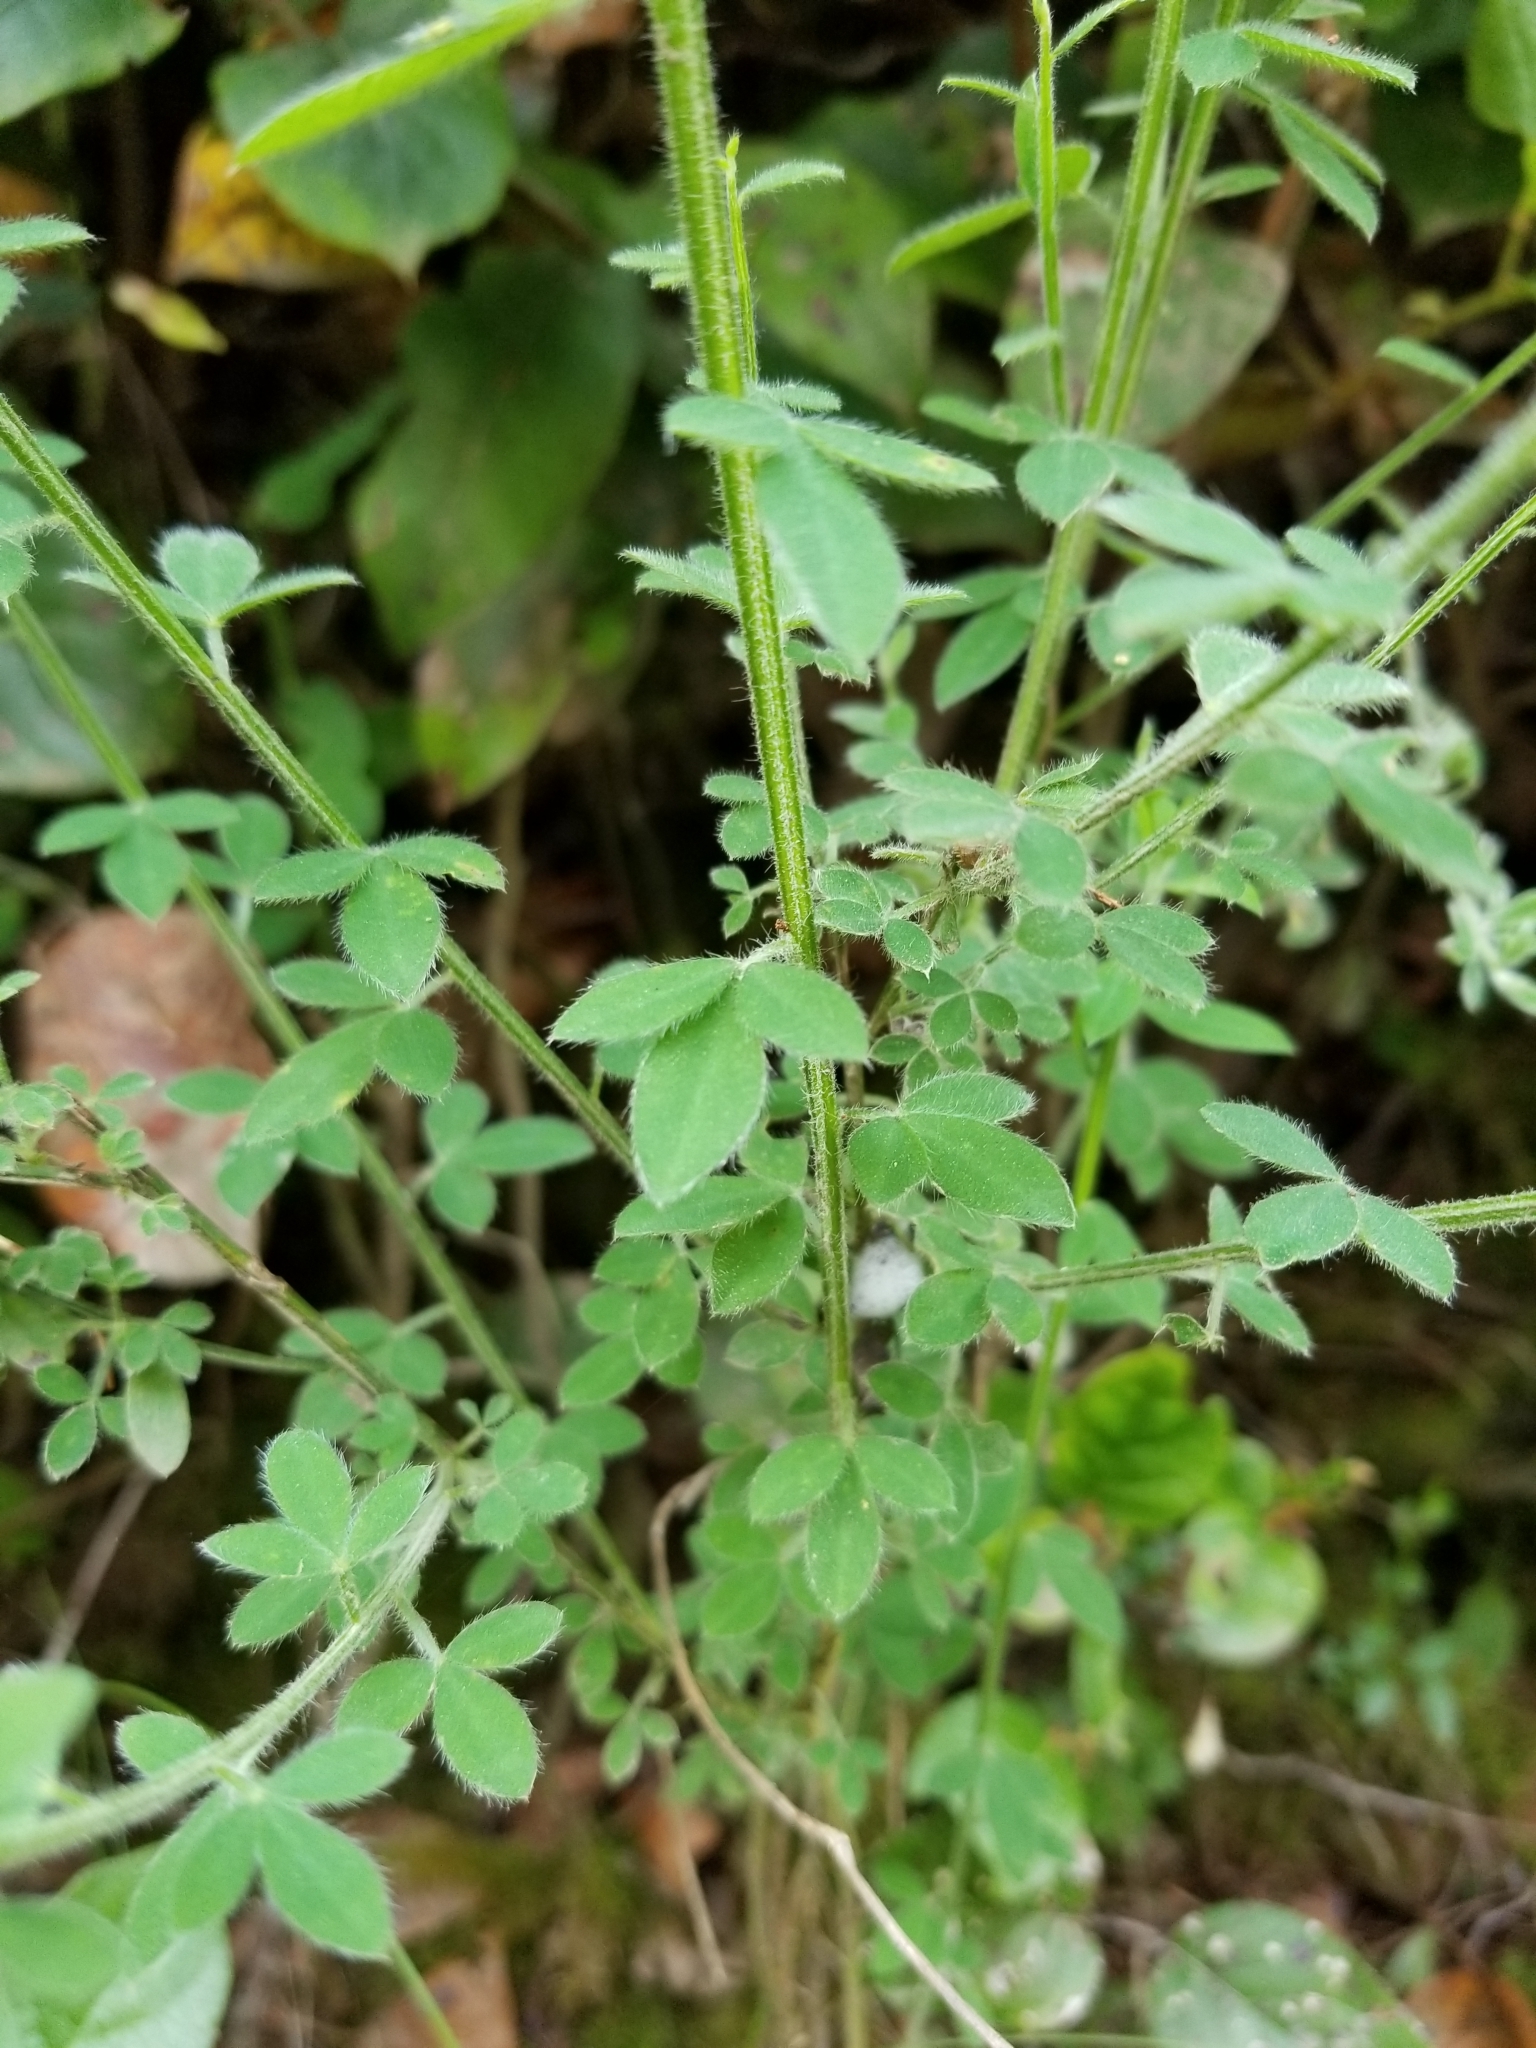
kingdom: Plantae
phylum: Tracheophyta
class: Magnoliopsida
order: Fabales
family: Fabaceae
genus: Cytisus
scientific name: Cytisus scoparius
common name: Scotch broom
